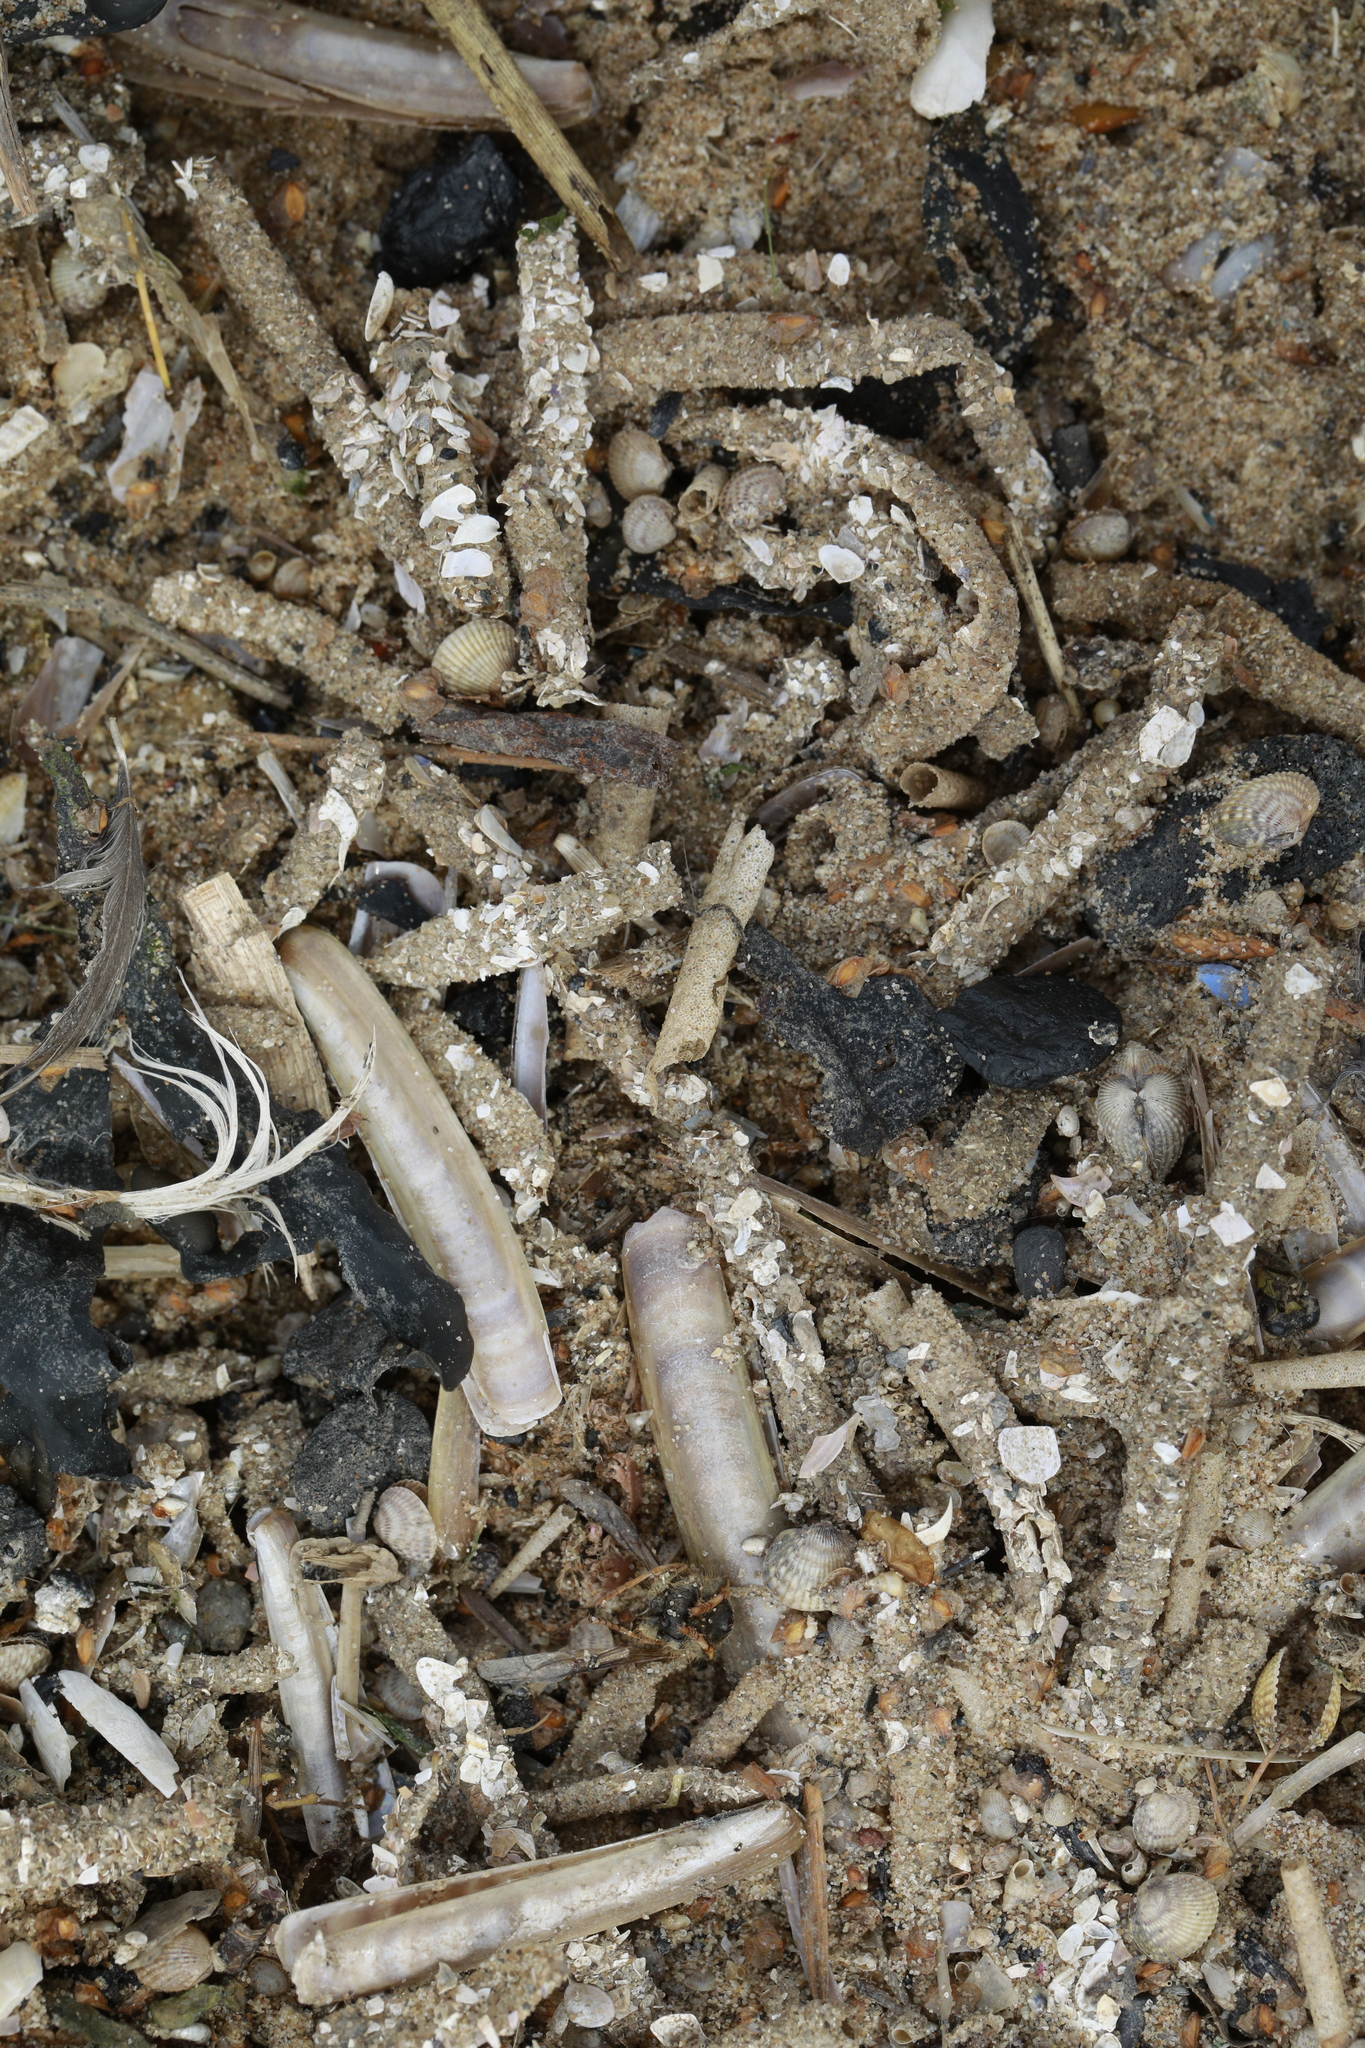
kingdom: Animalia
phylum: Annelida
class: Polychaeta
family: Terebellidae
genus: Lanice
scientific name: Lanice conchilega
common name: Sand mason
